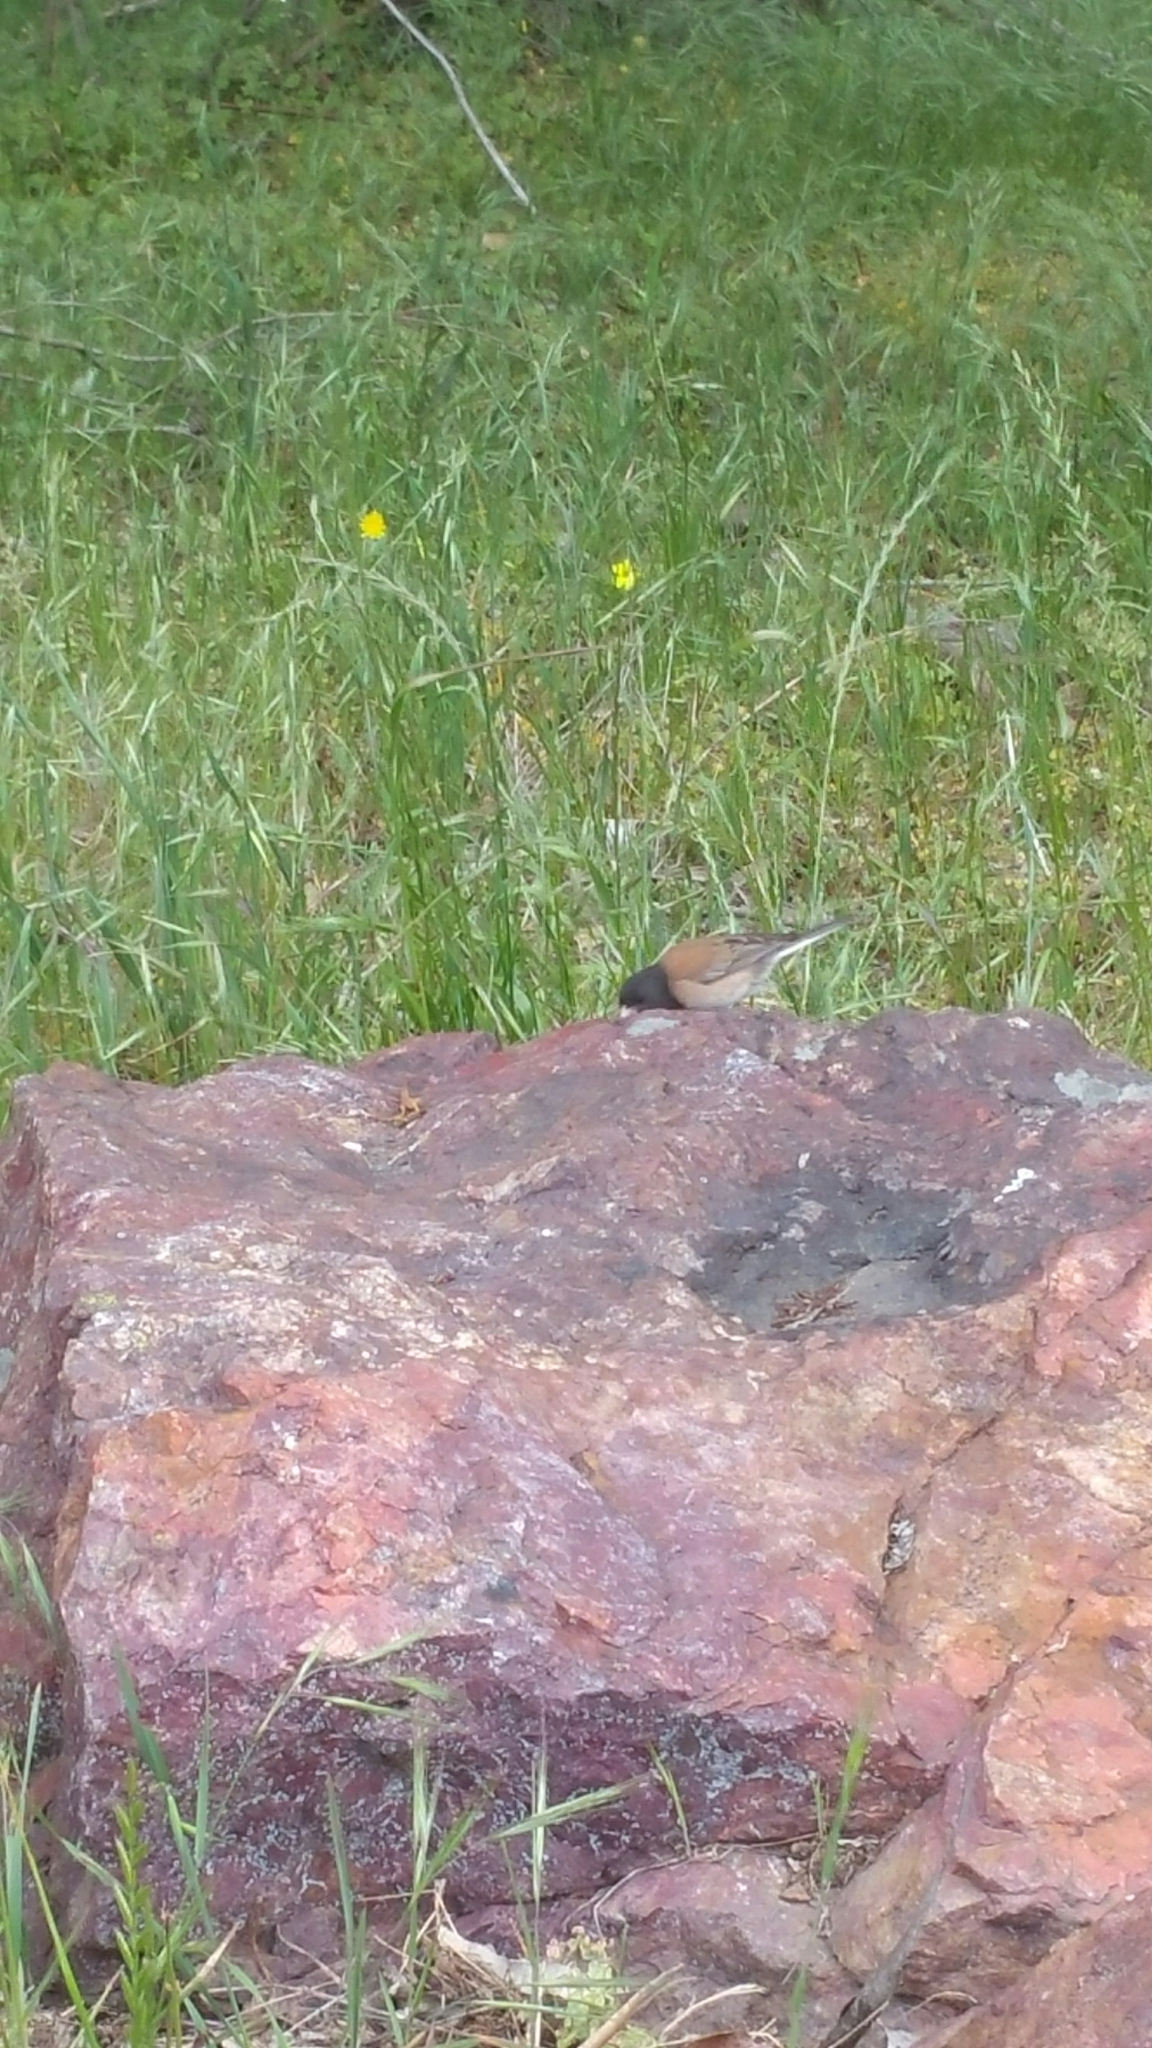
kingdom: Animalia
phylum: Chordata
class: Aves
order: Passeriformes
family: Passerellidae
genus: Junco
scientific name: Junco hyemalis
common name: Dark-eyed junco
